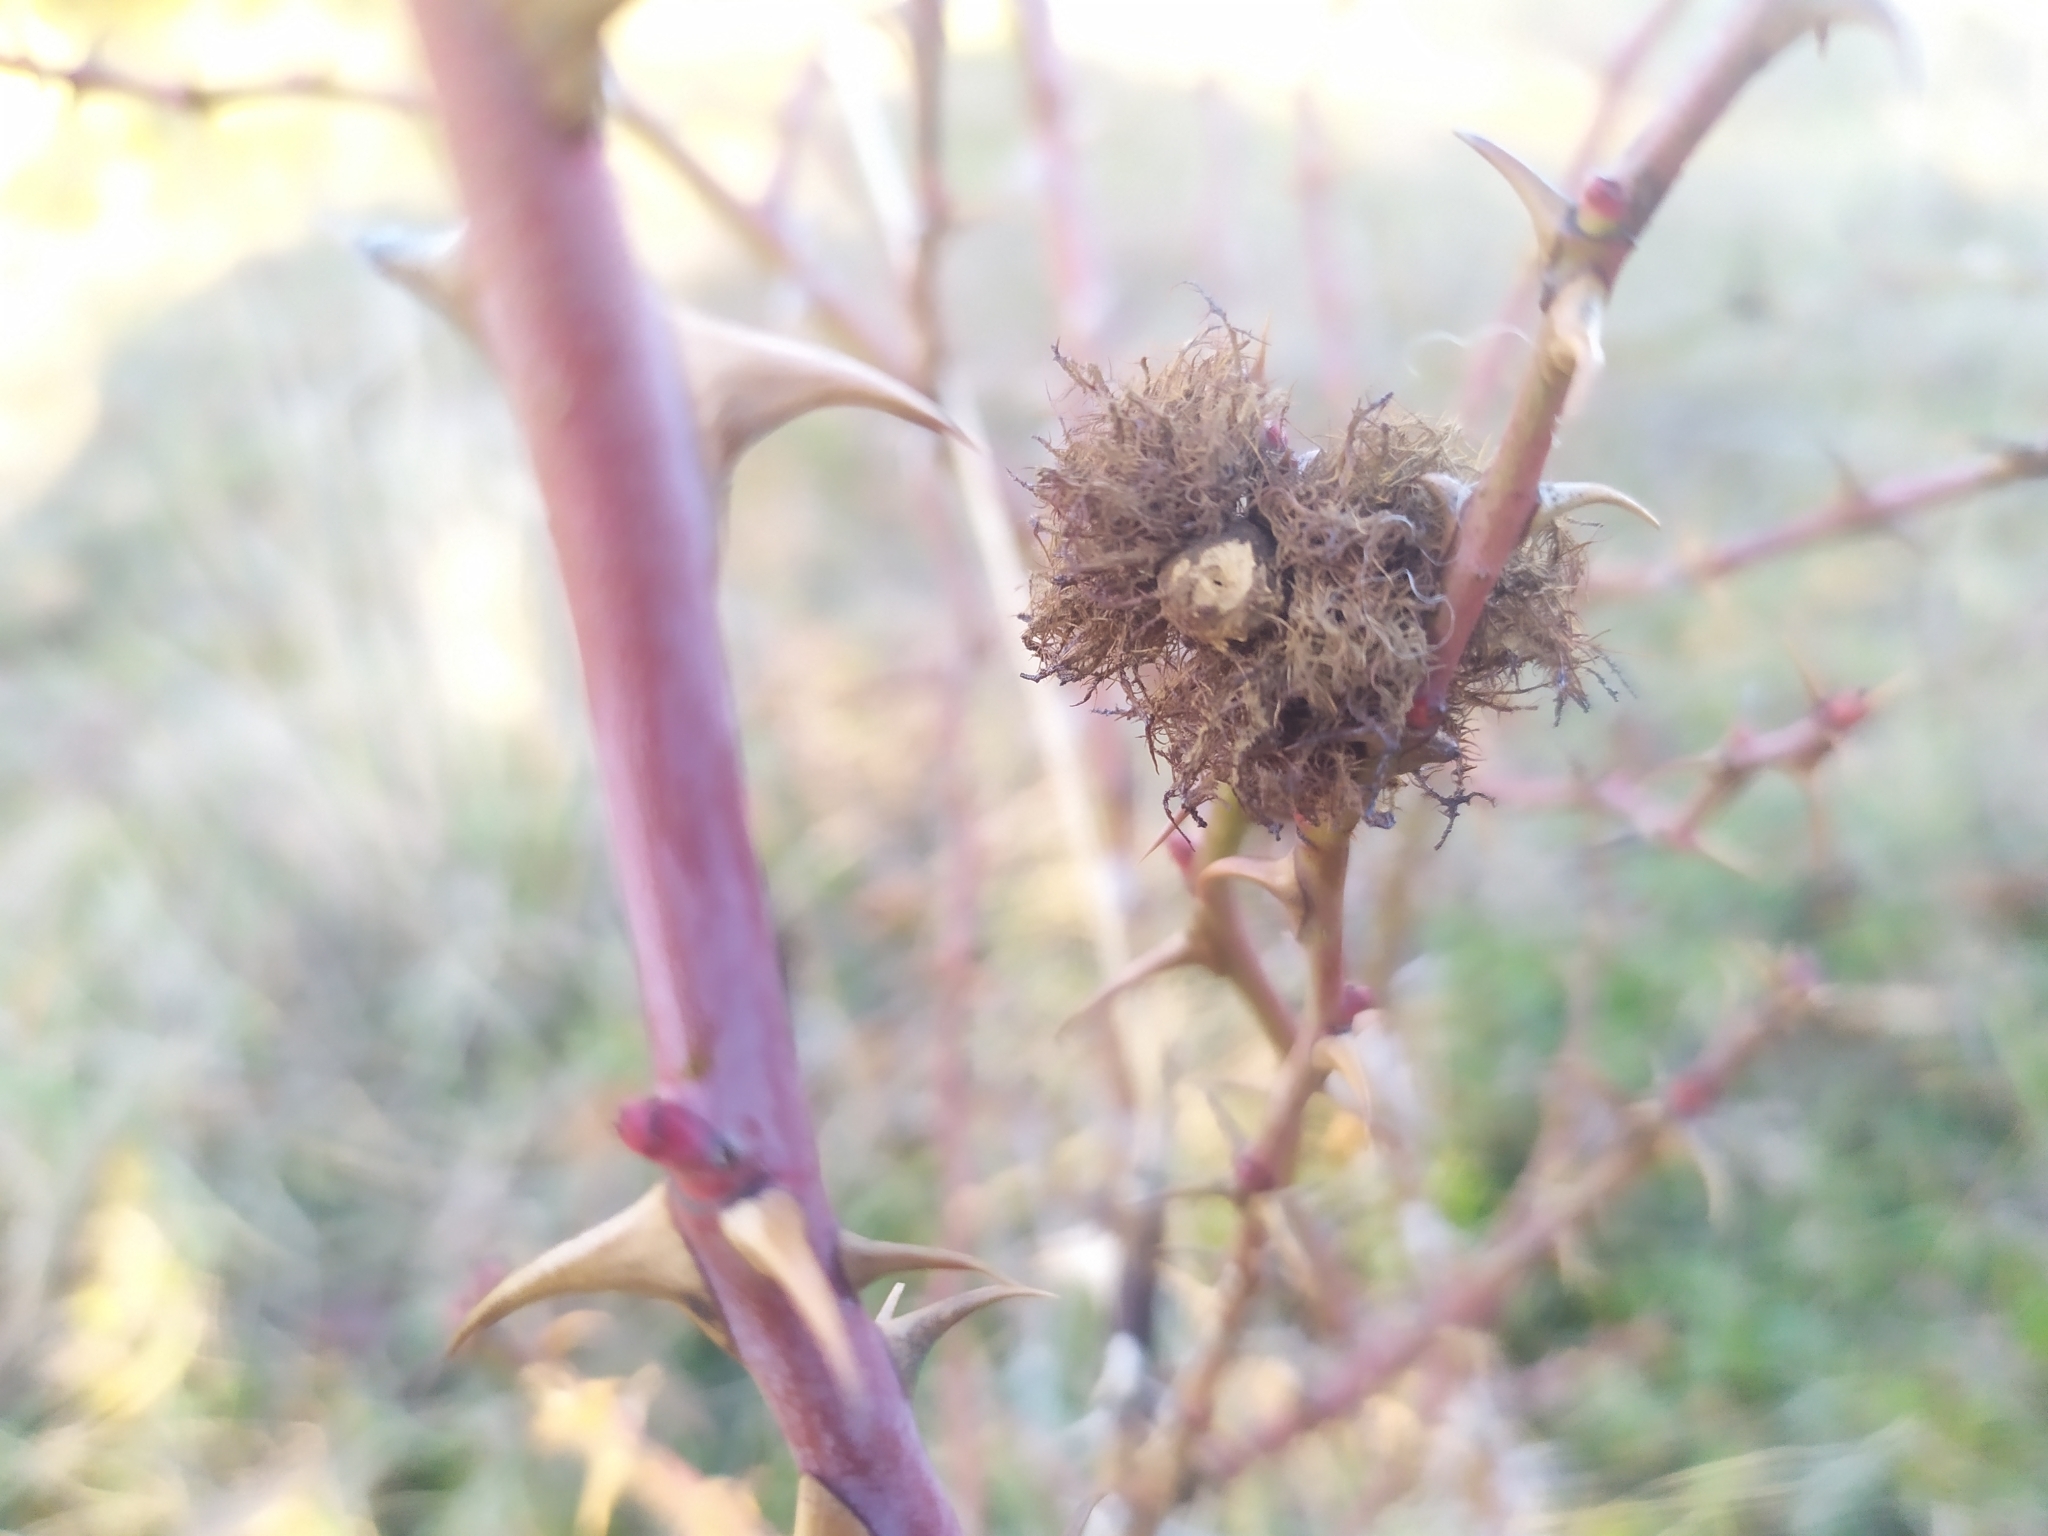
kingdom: Animalia
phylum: Arthropoda
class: Insecta
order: Hymenoptera
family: Cynipidae
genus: Diplolepis
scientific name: Diplolepis rosae
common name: Bedeguar gall
